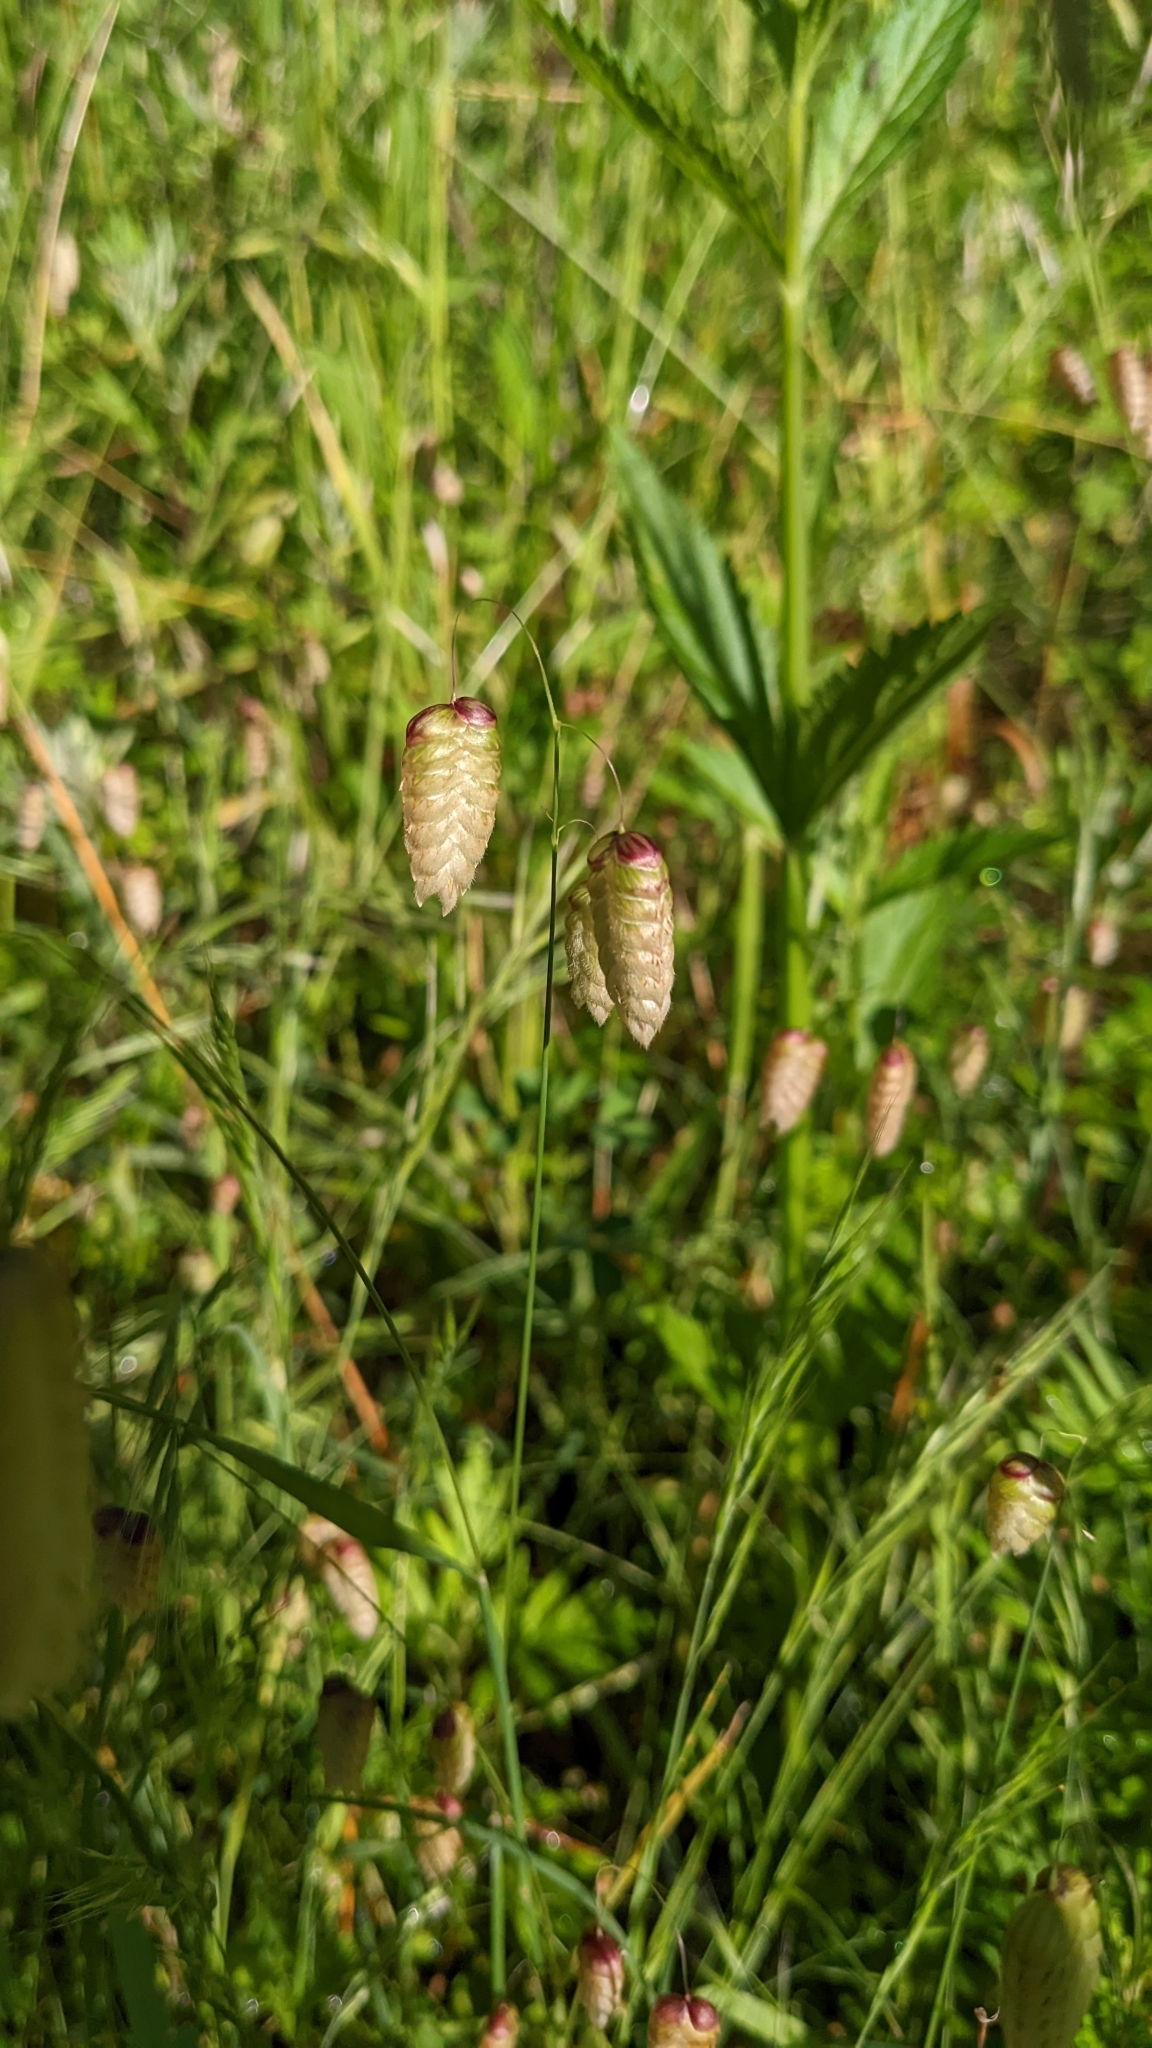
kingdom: Plantae
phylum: Tracheophyta
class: Liliopsida
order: Poales
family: Poaceae
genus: Briza
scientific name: Briza maxima
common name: Big quakinggrass
